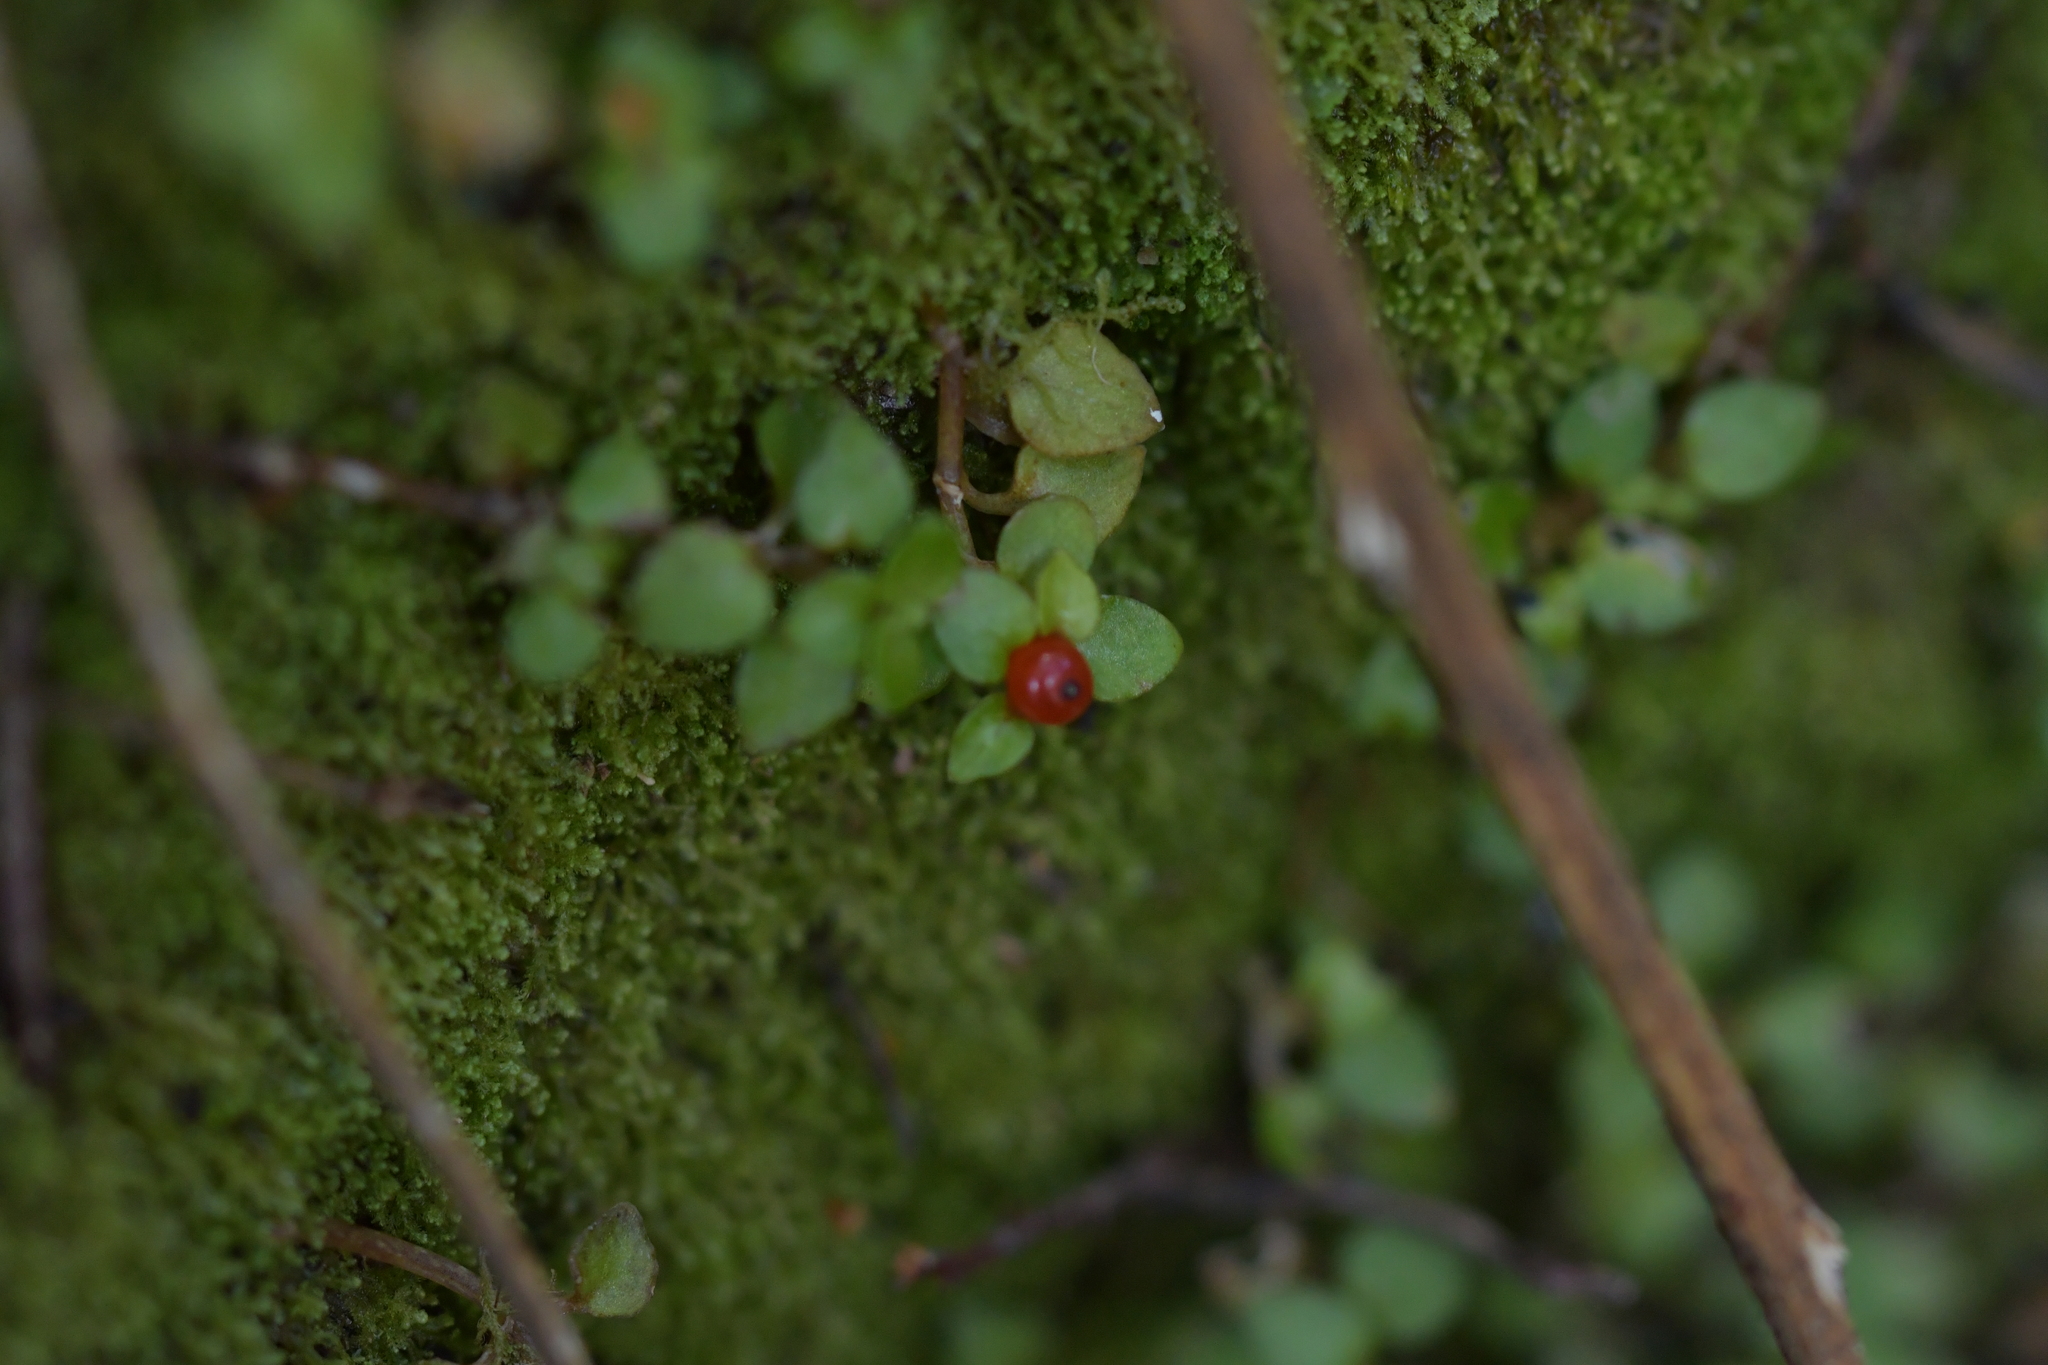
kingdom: Plantae
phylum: Tracheophyta
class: Magnoliopsida
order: Gentianales
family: Rubiaceae
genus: Nertera
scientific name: Nertera granadensis
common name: Beadplant
